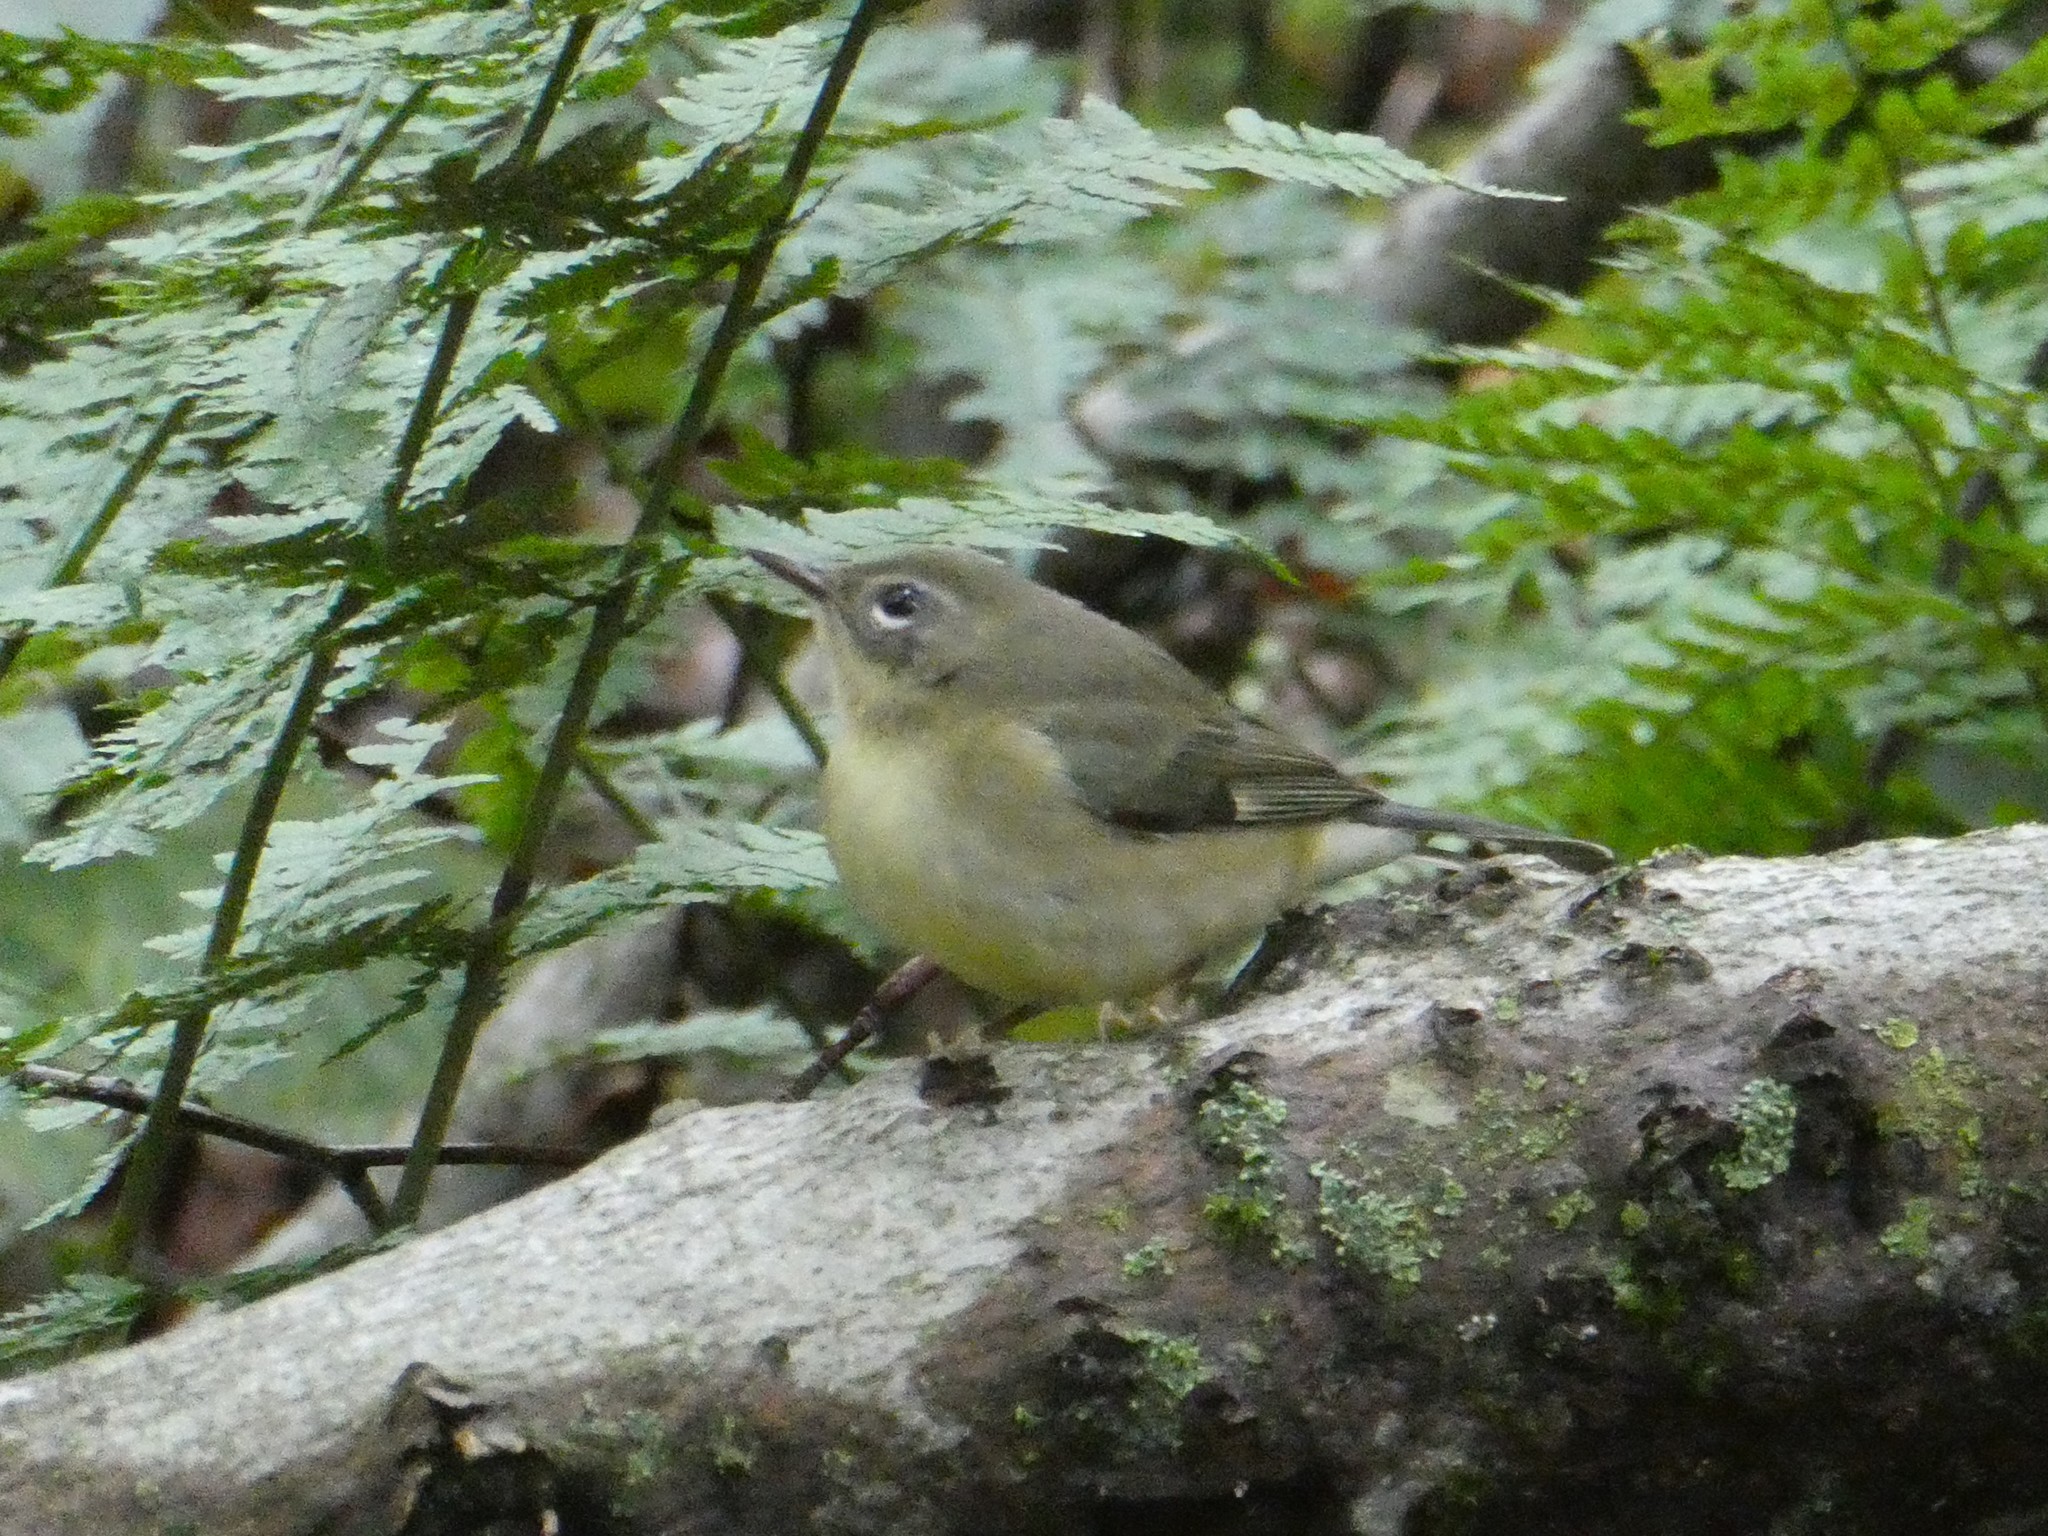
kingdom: Animalia
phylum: Chordata
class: Aves
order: Passeriformes
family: Parulidae
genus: Setophaga
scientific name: Setophaga caerulescens
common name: Black-throated blue warbler
